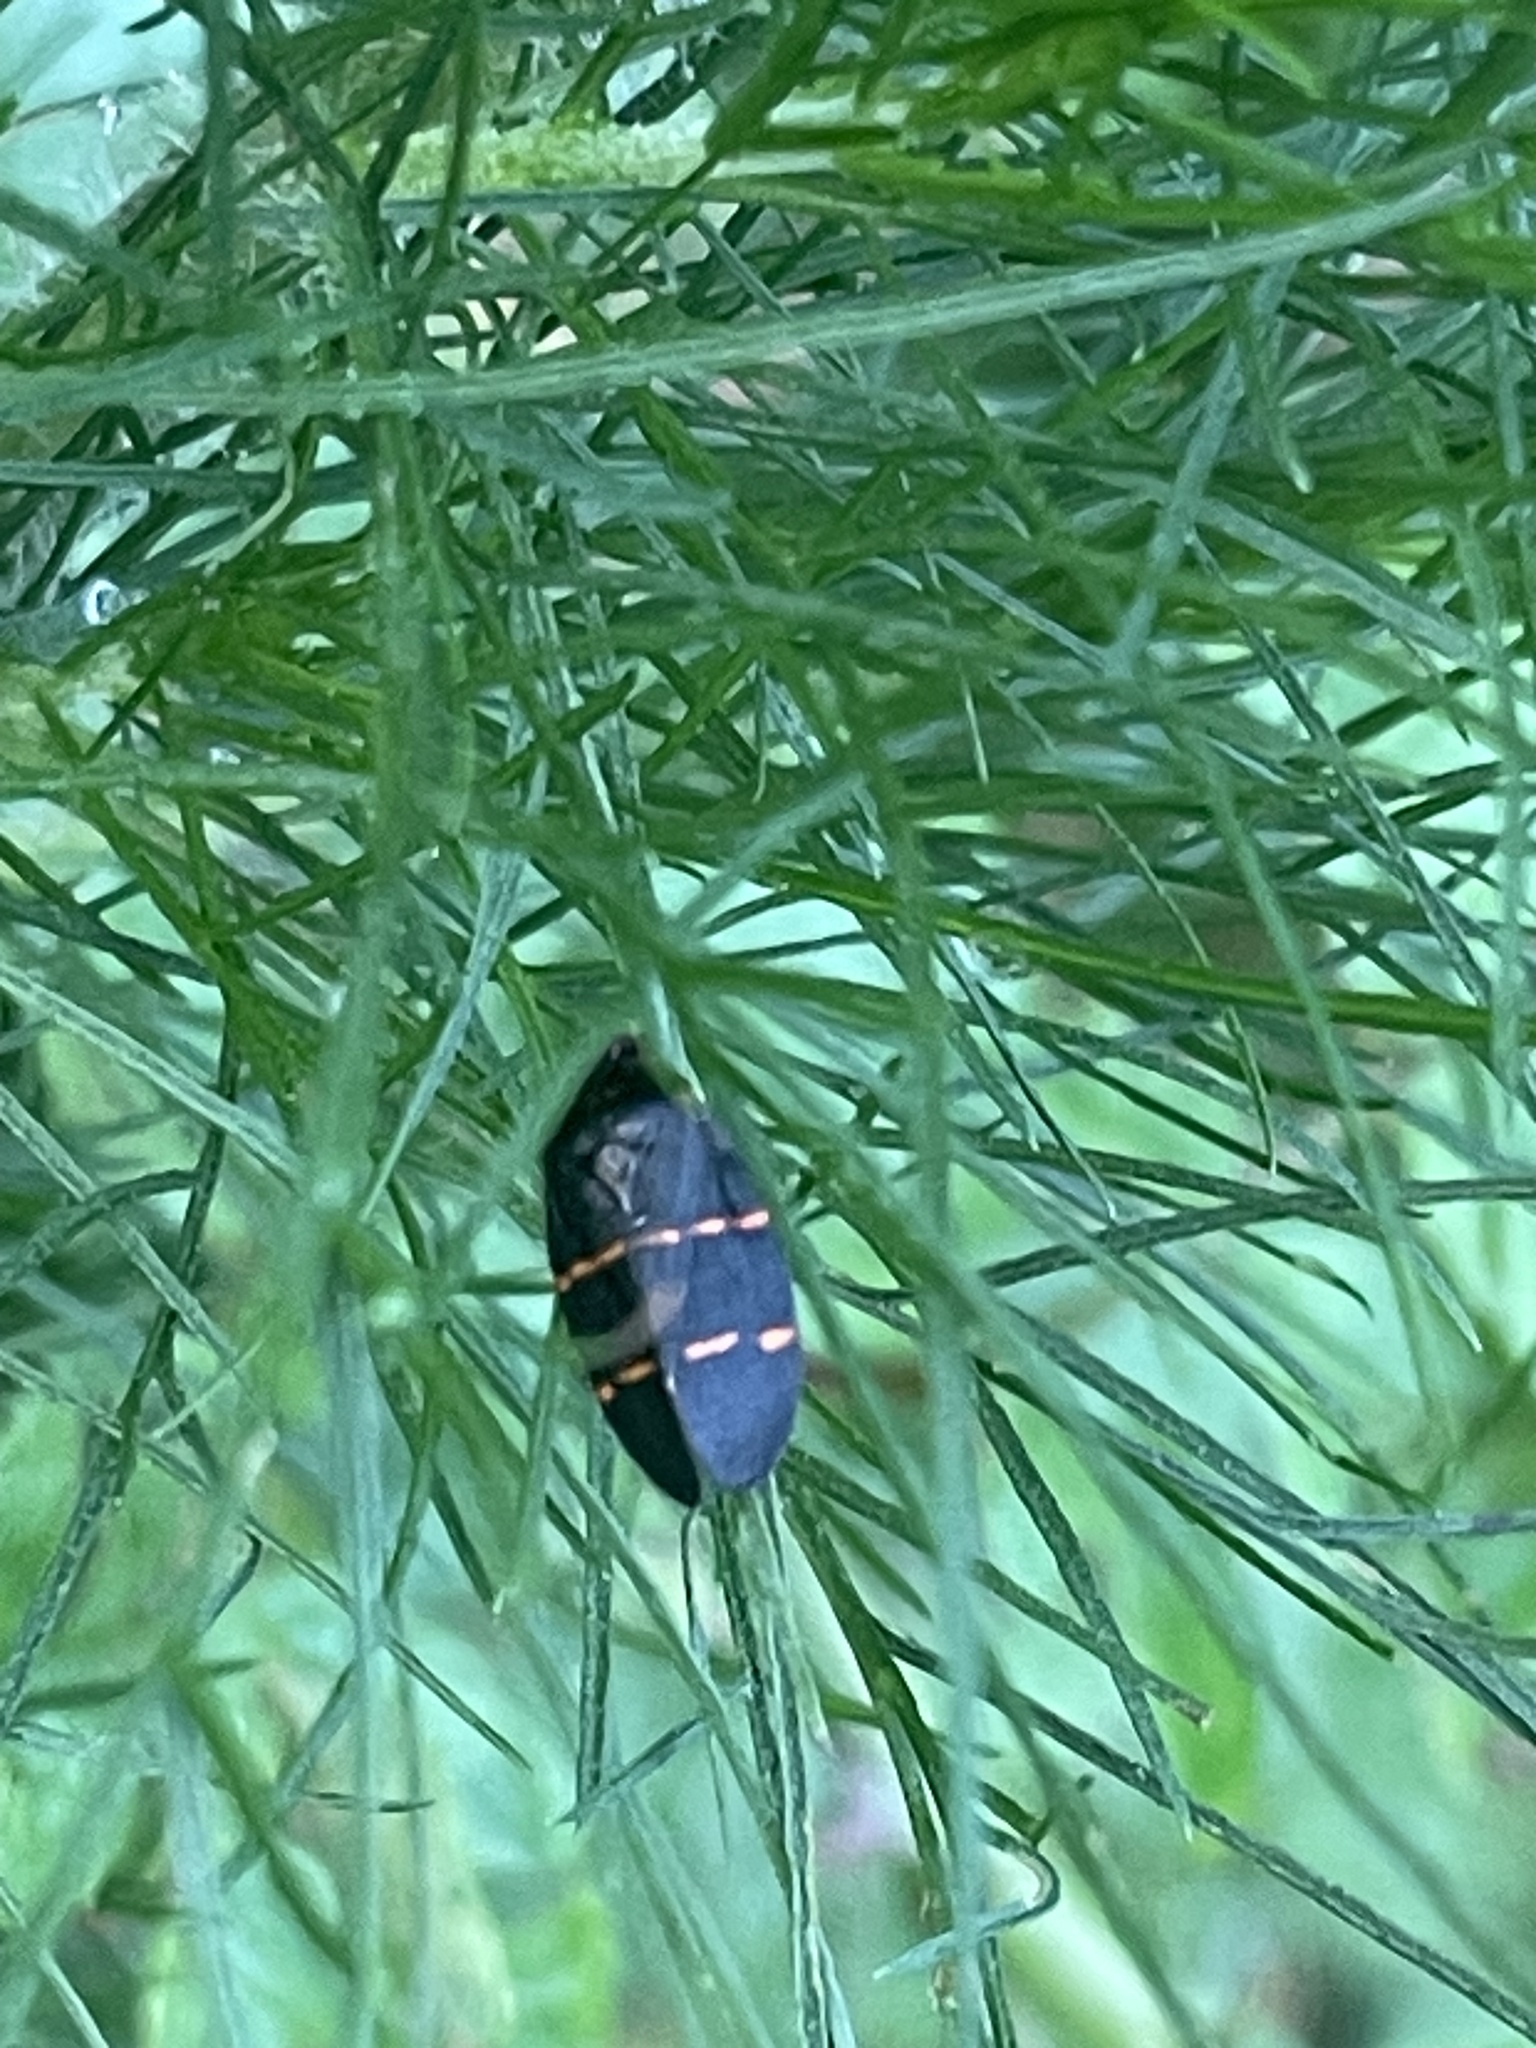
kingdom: Animalia
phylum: Arthropoda
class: Insecta
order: Hemiptera
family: Cercopidae
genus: Prosapia
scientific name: Prosapia bicincta
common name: Twolined spittlebug
